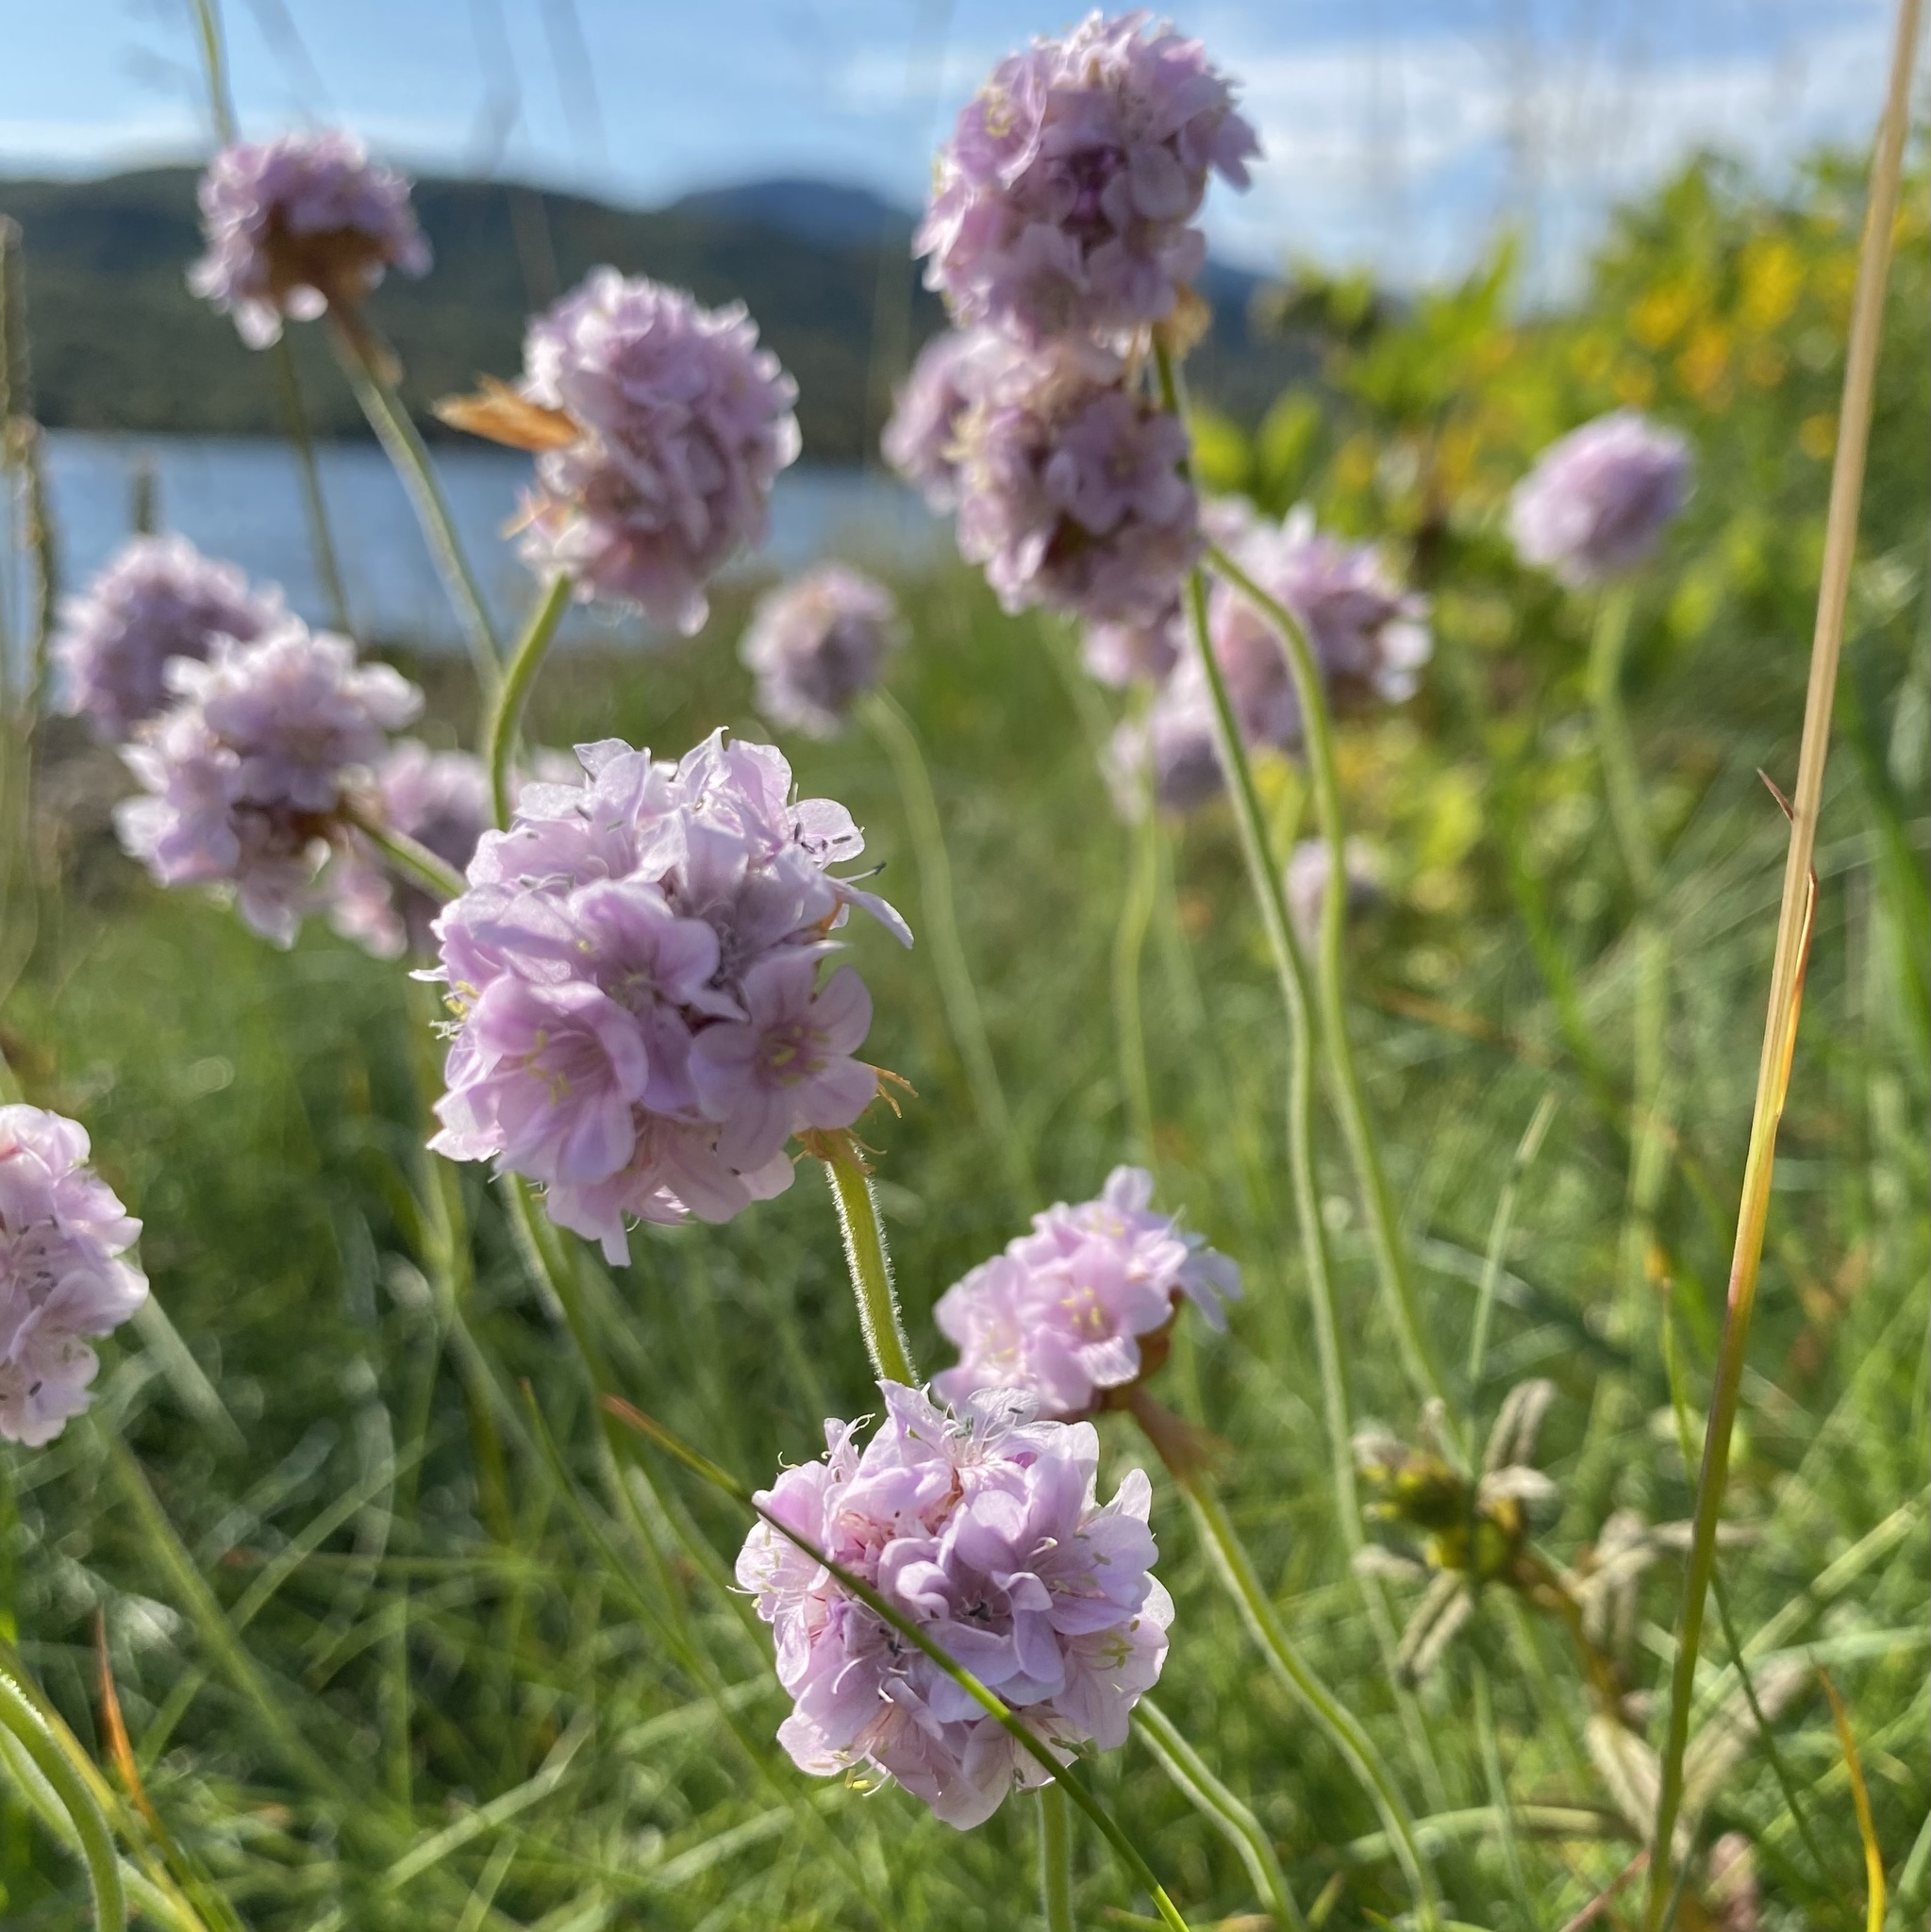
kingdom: Plantae
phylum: Tracheophyta
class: Magnoliopsida
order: Caryophyllales
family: Plumbaginaceae
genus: Armeria
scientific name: Armeria maritima
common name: Thrift
